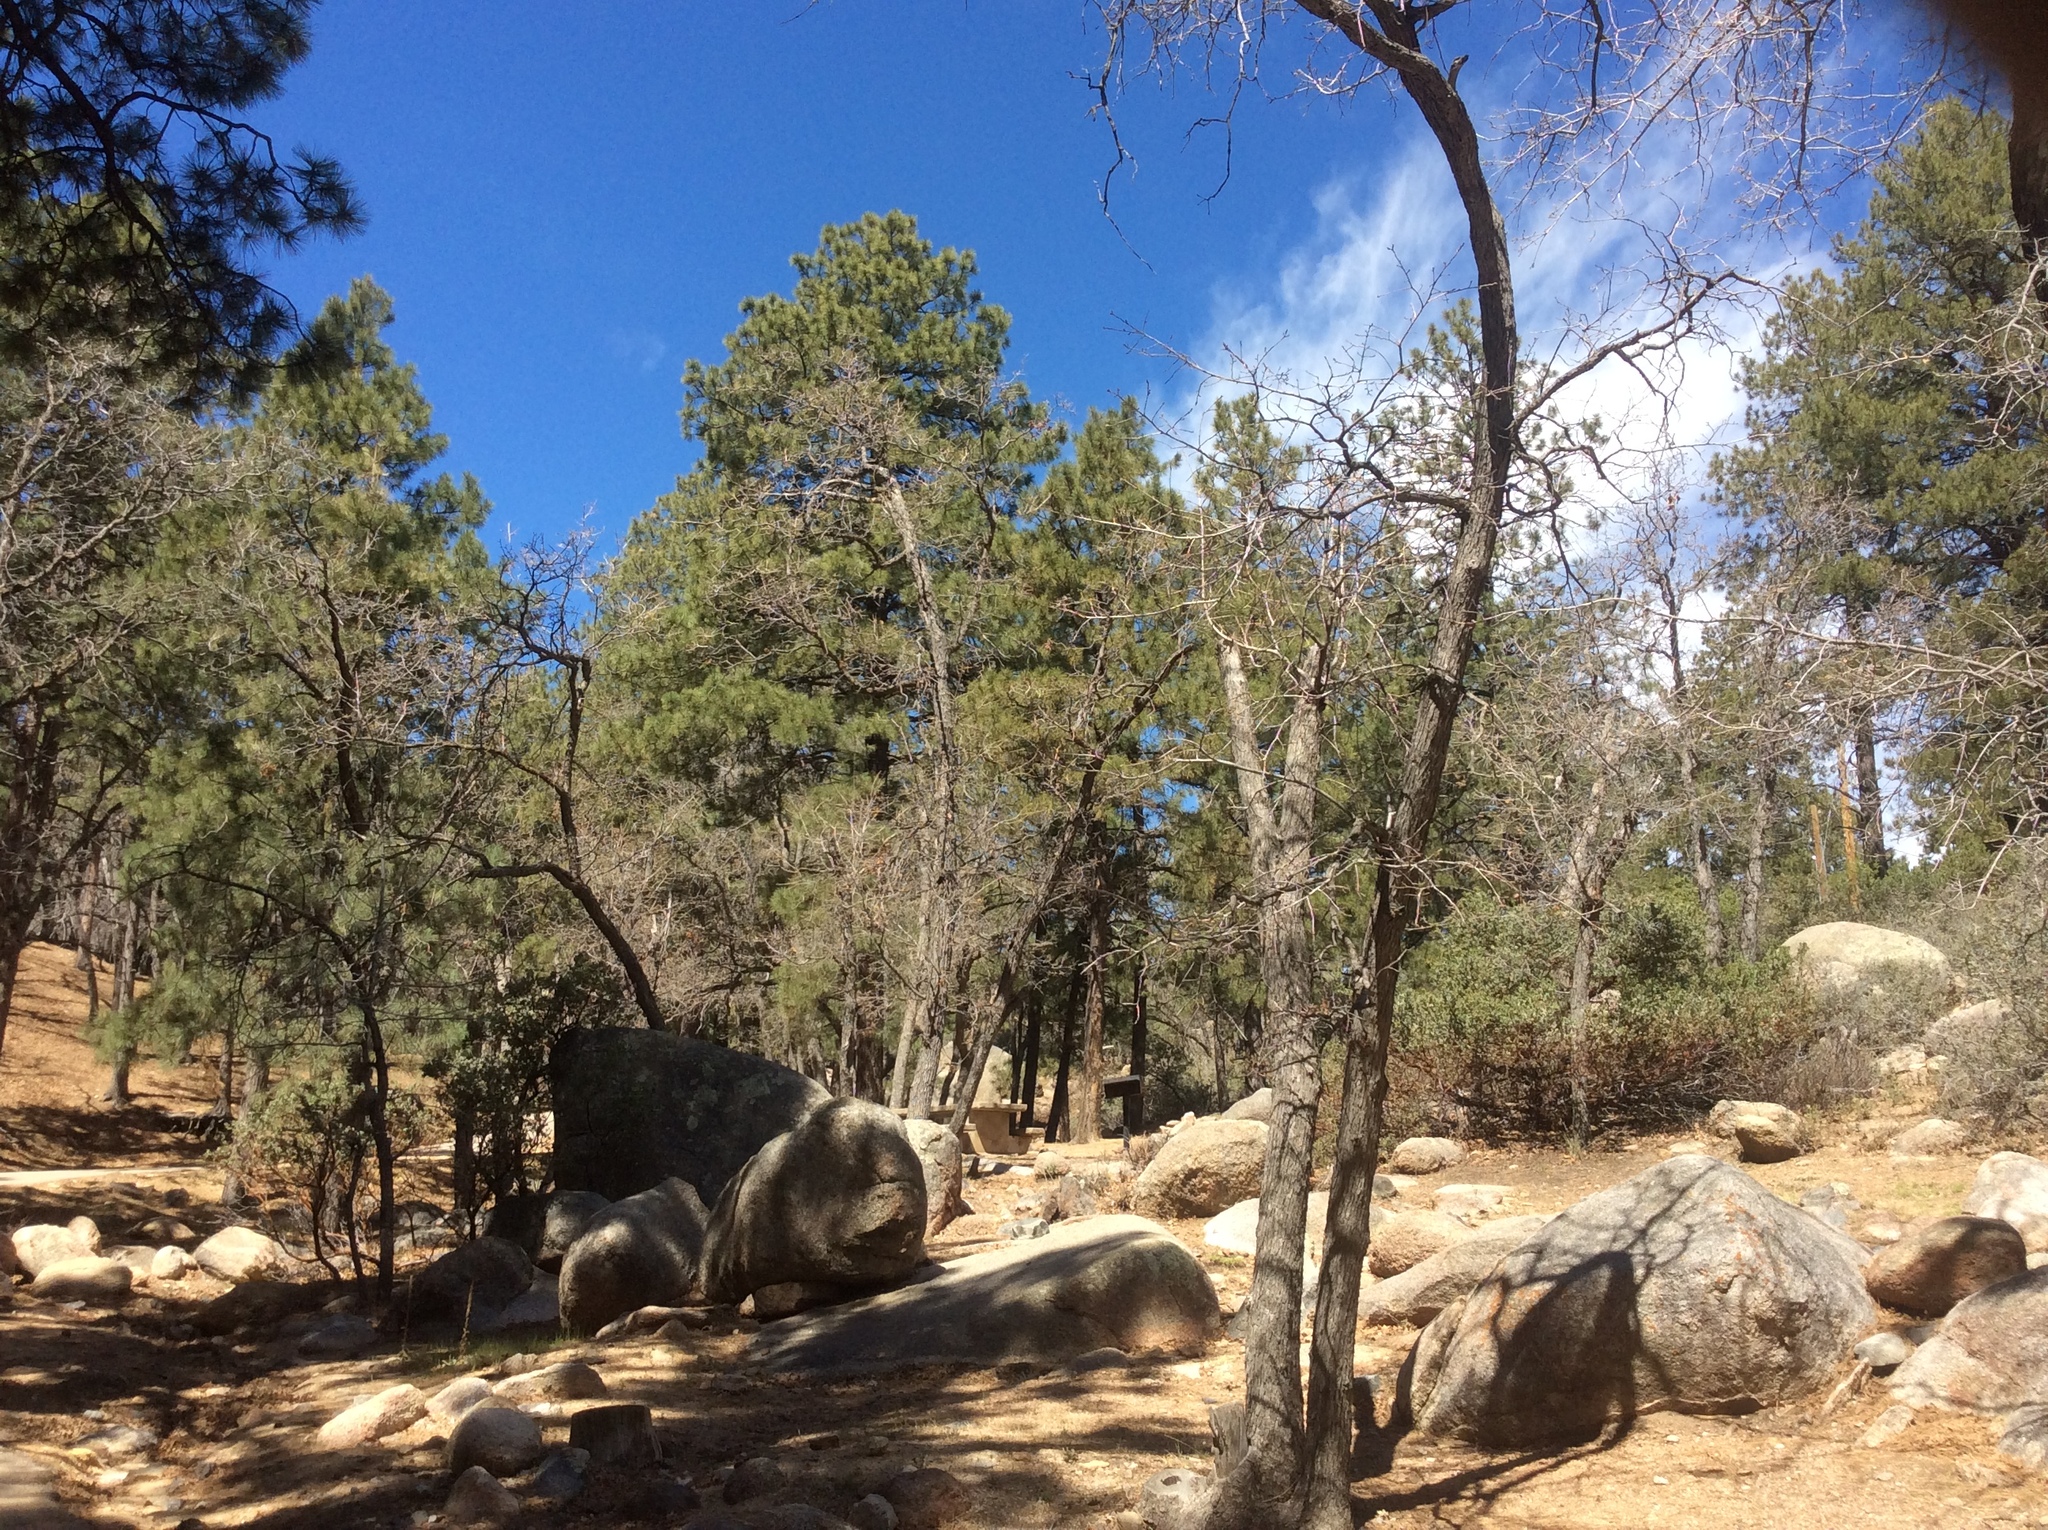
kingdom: Plantae
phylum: Tracheophyta
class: Magnoliopsida
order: Fagales
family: Fagaceae
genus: Quercus
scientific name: Quercus gambelii
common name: Gambel oak
